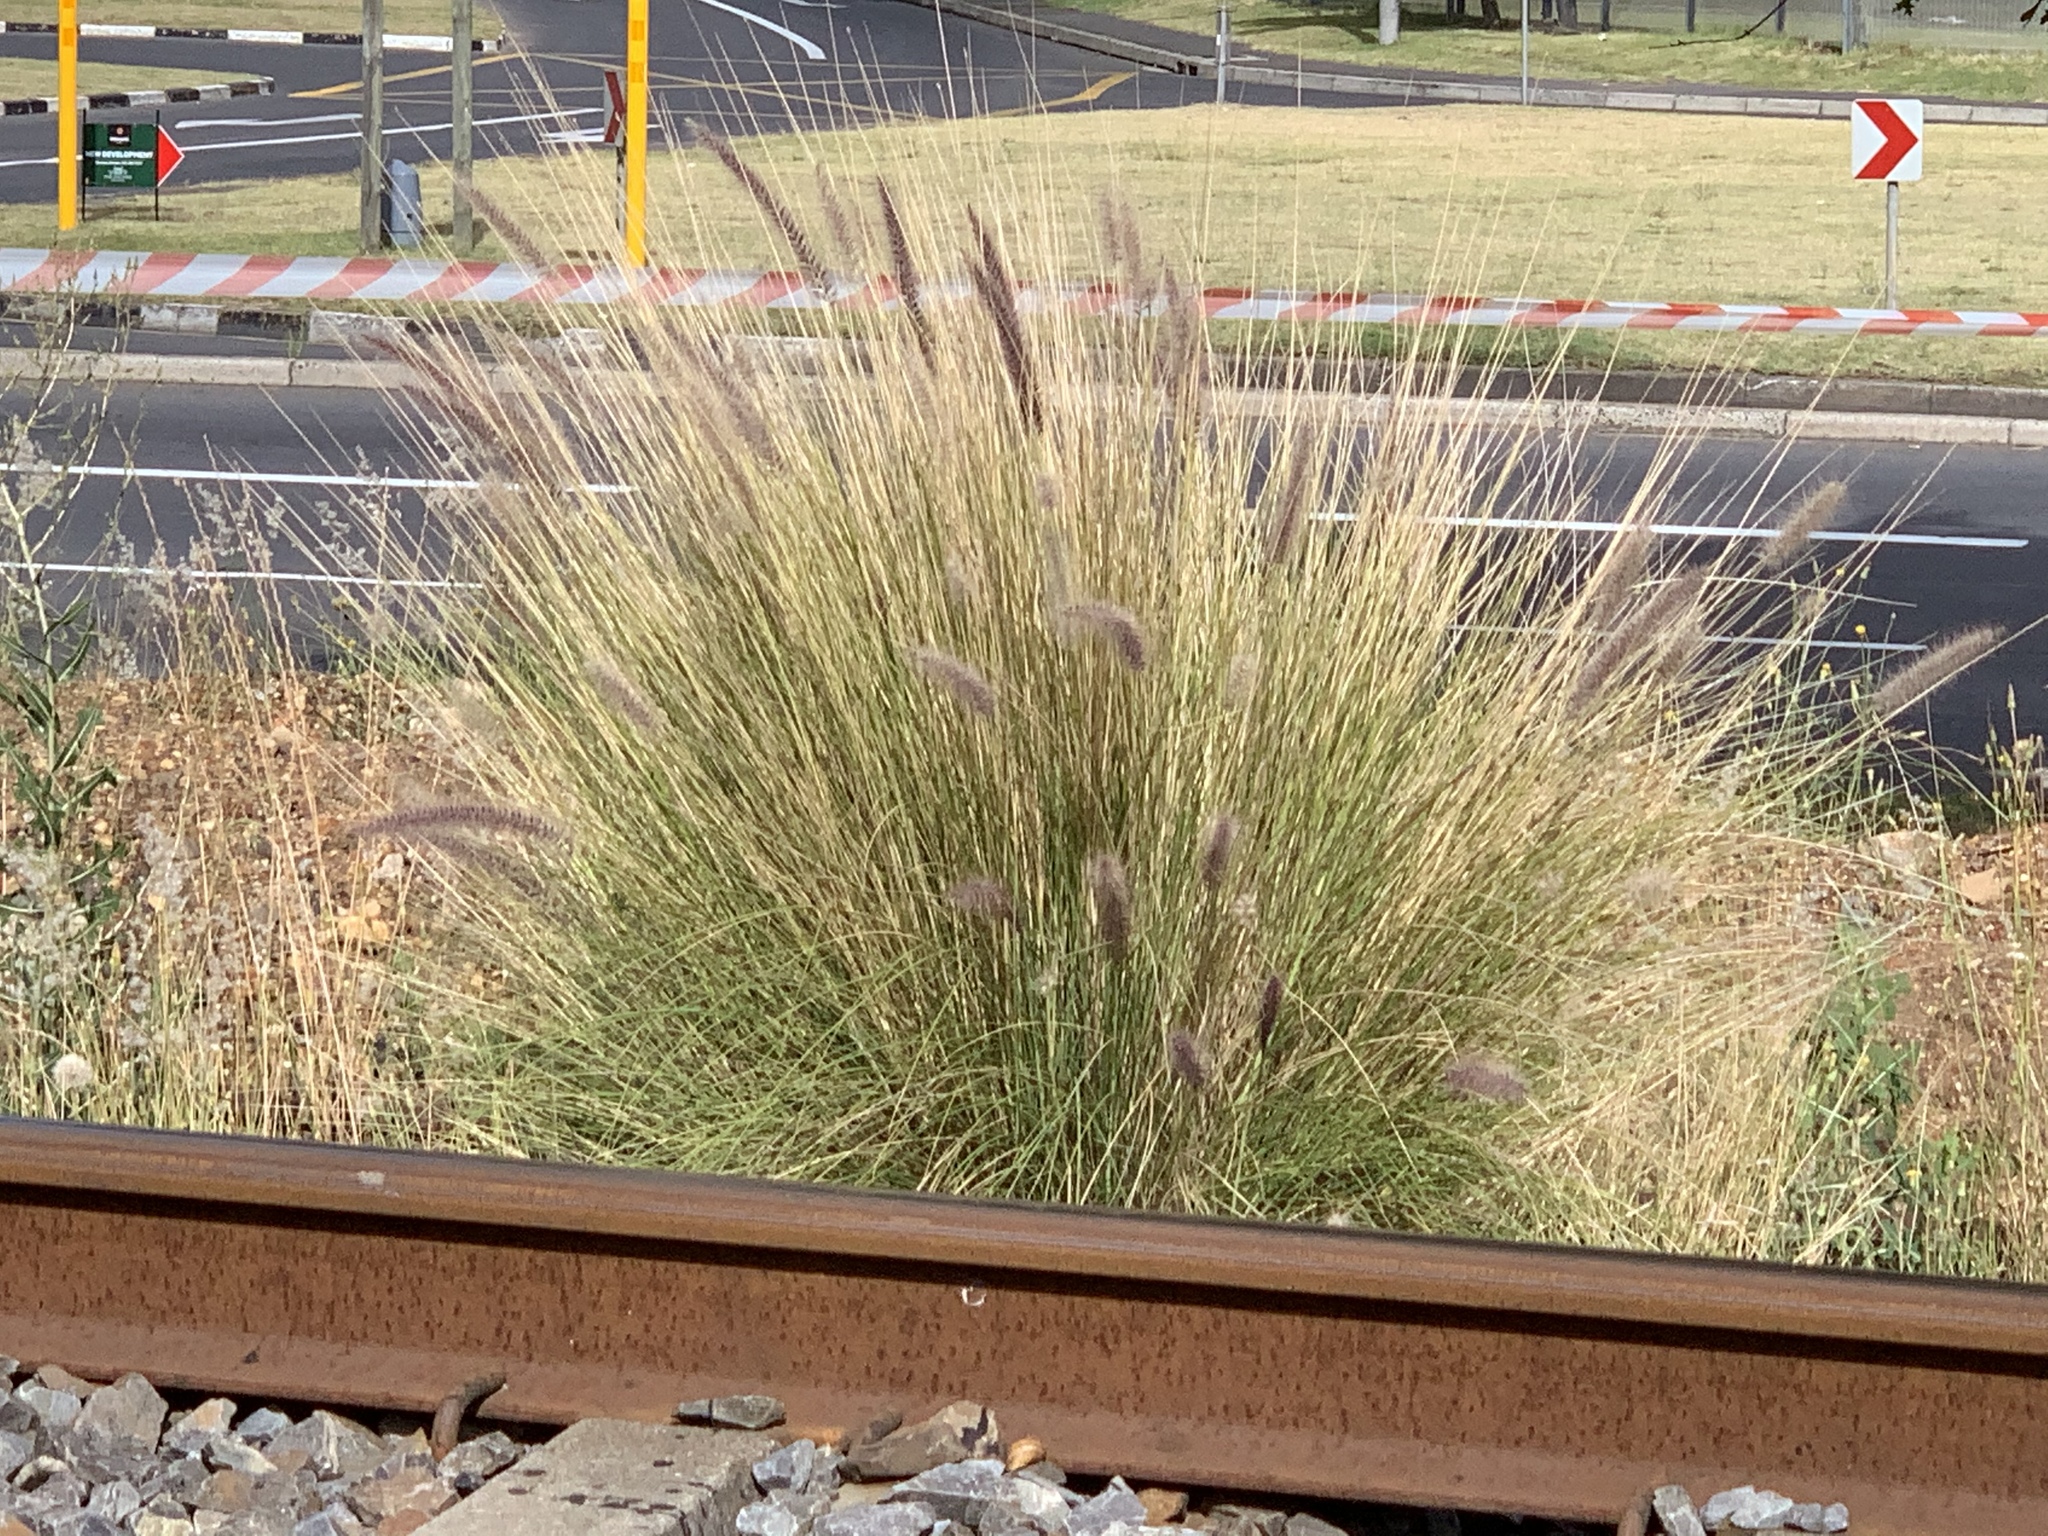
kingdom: Plantae
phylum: Tracheophyta
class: Liliopsida
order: Poales
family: Poaceae
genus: Cenchrus
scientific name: Cenchrus setaceus
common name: Crimson fountaingrass
